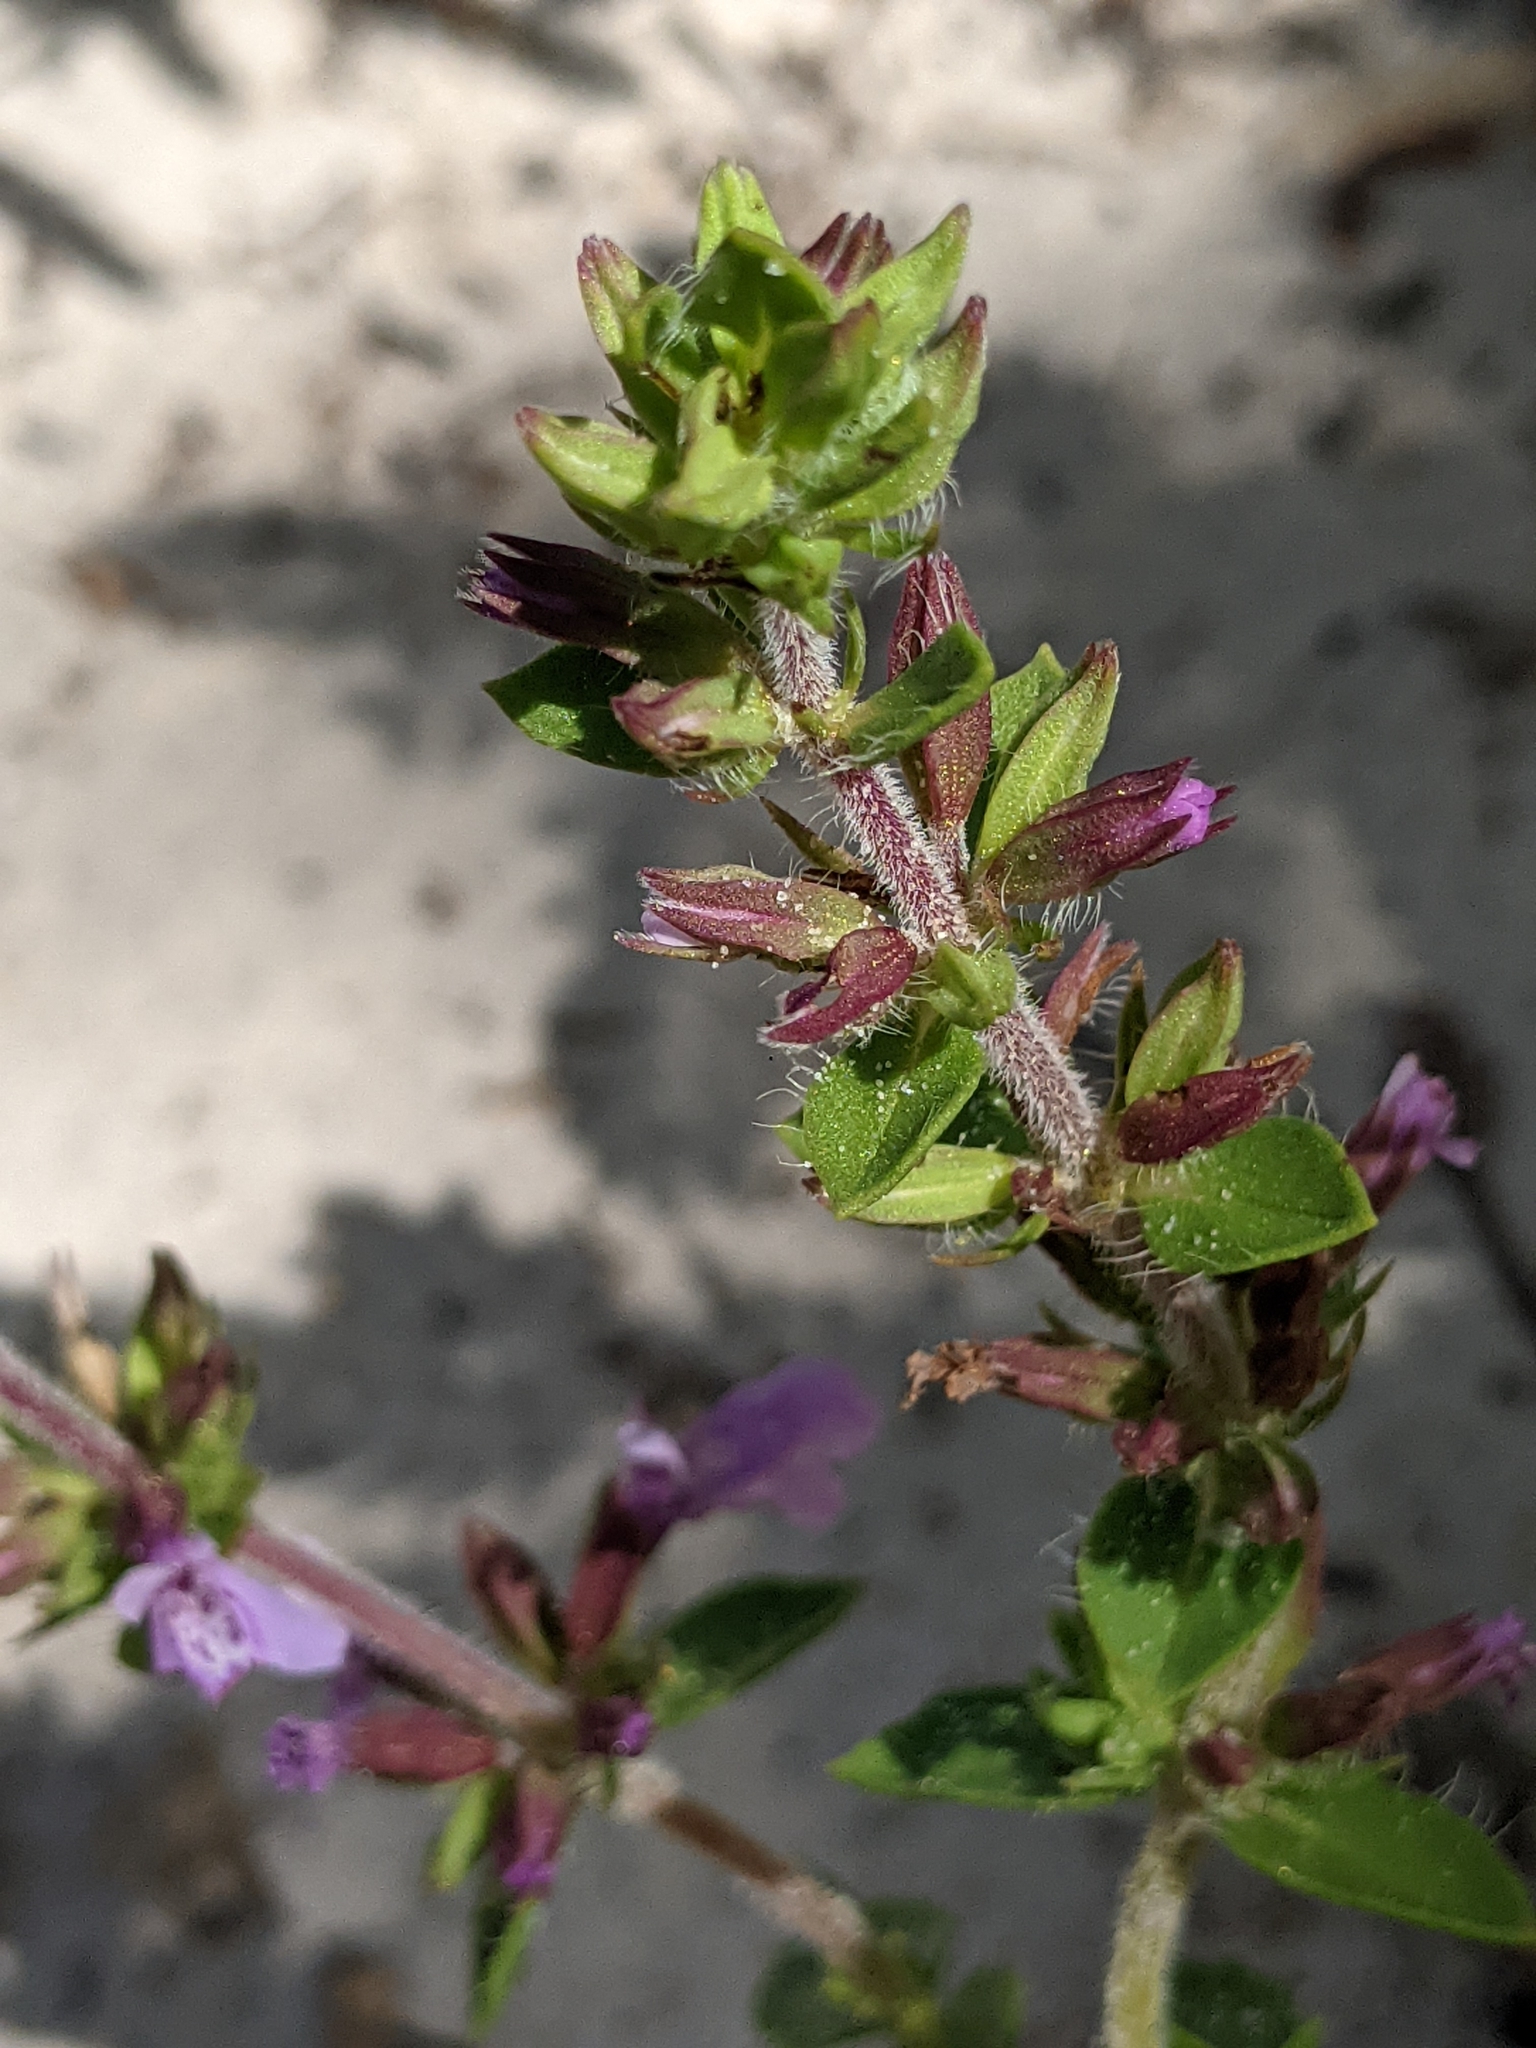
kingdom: Plantae
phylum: Tracheophyta
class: Magnoliopsida
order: Lamiales
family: Lamiaceae
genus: Rhododon
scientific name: Rhododon ciliatus
